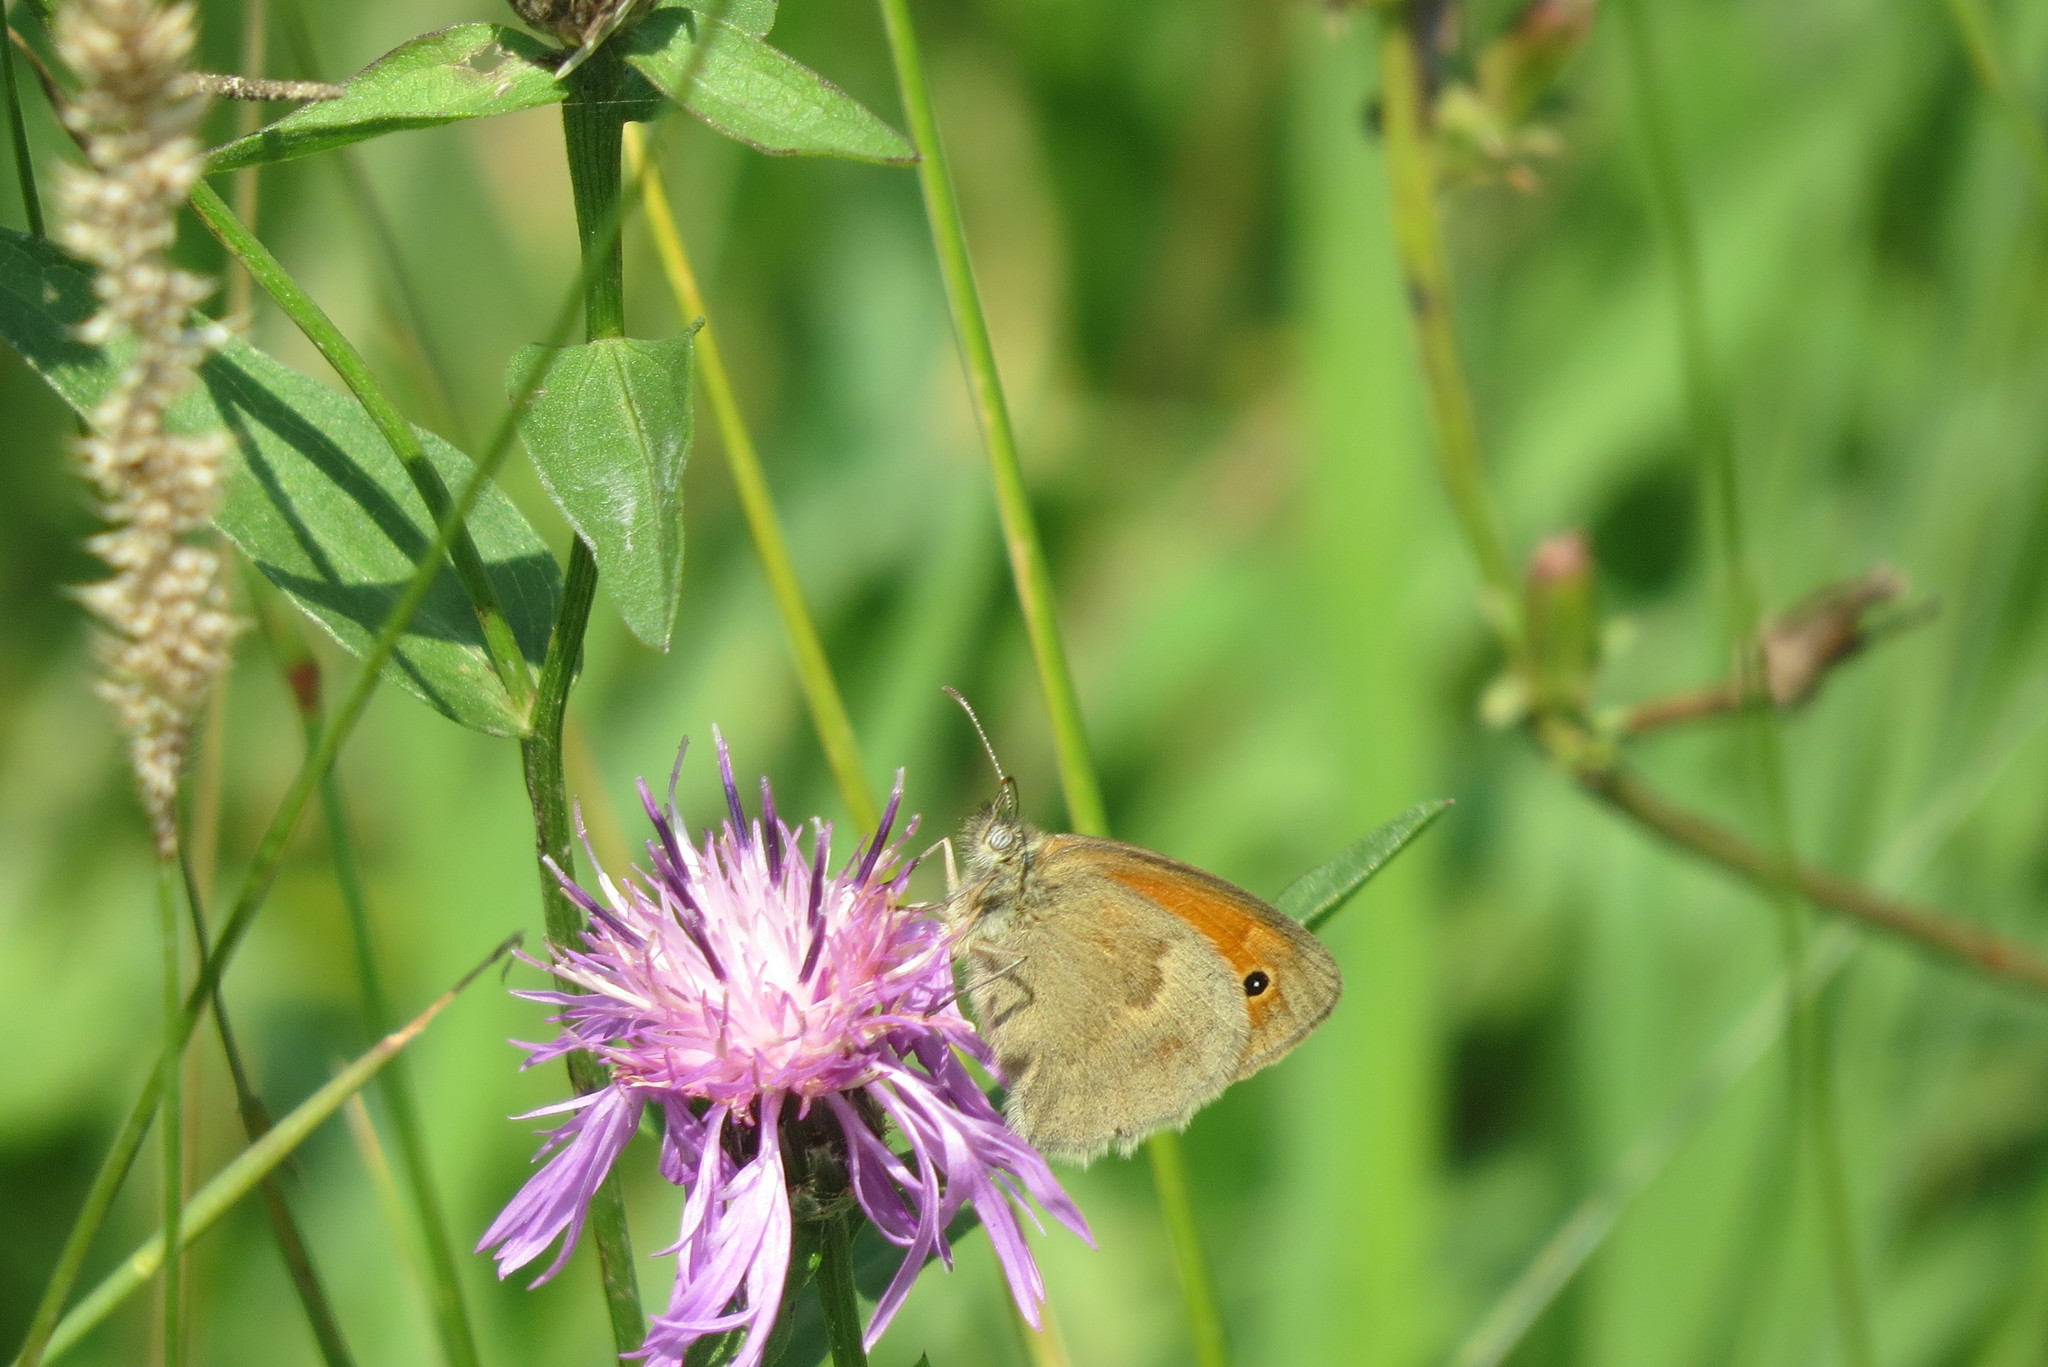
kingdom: Animalia
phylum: Arthropoda
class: Insecta
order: Lepidoptera
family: Nymphalidae
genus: Coenonympha
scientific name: Coenonympha pamphilus
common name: Small heath
